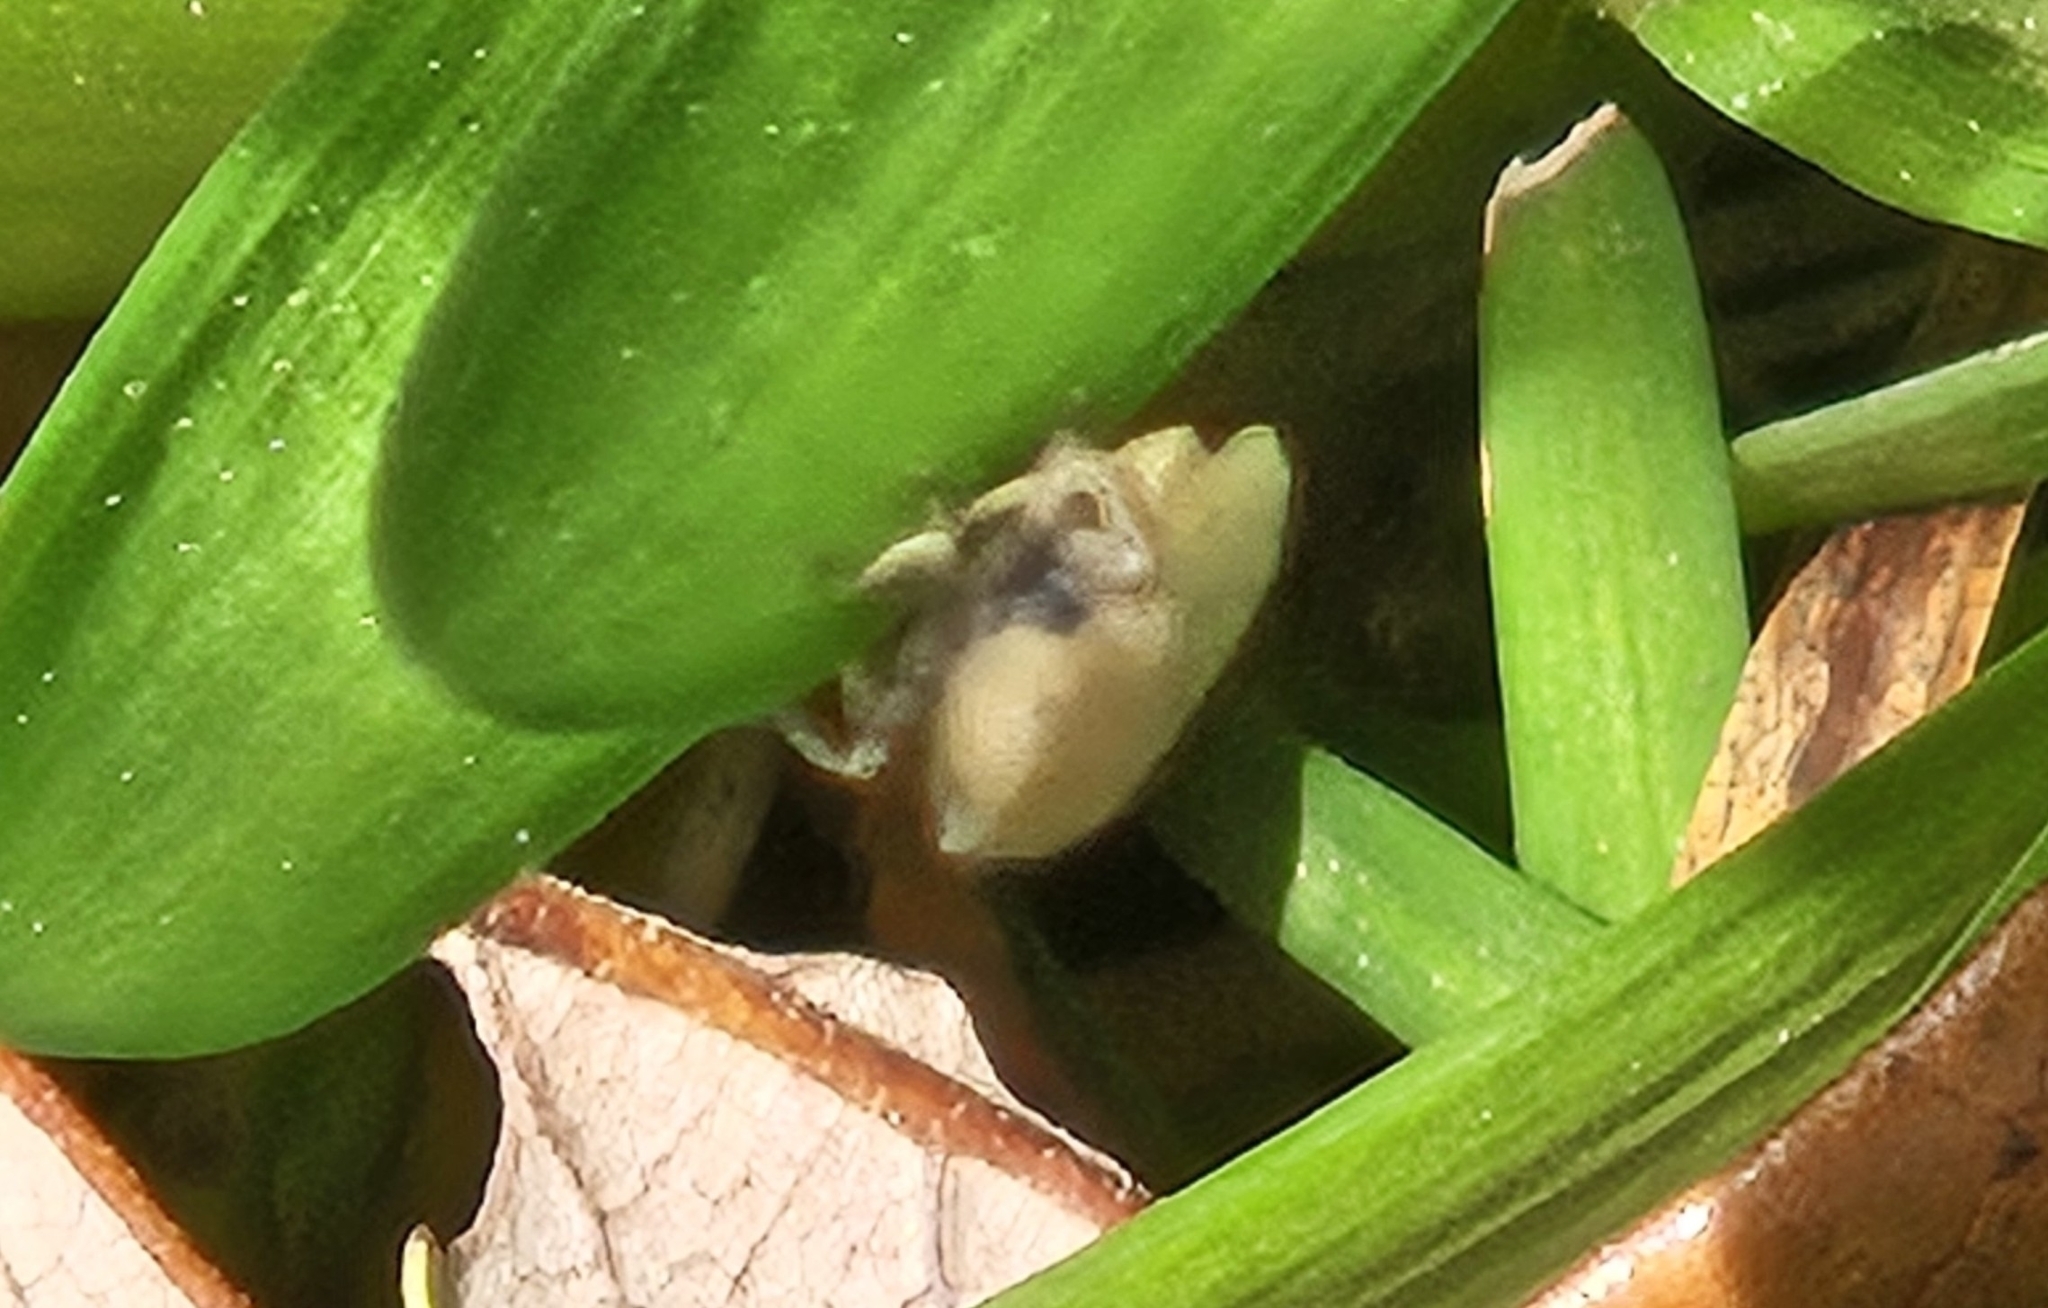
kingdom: Animalia
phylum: Arthropoda
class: Insecta
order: Hemiptera
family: Cicadellidae
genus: Negosiana
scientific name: Negosiana dualis
